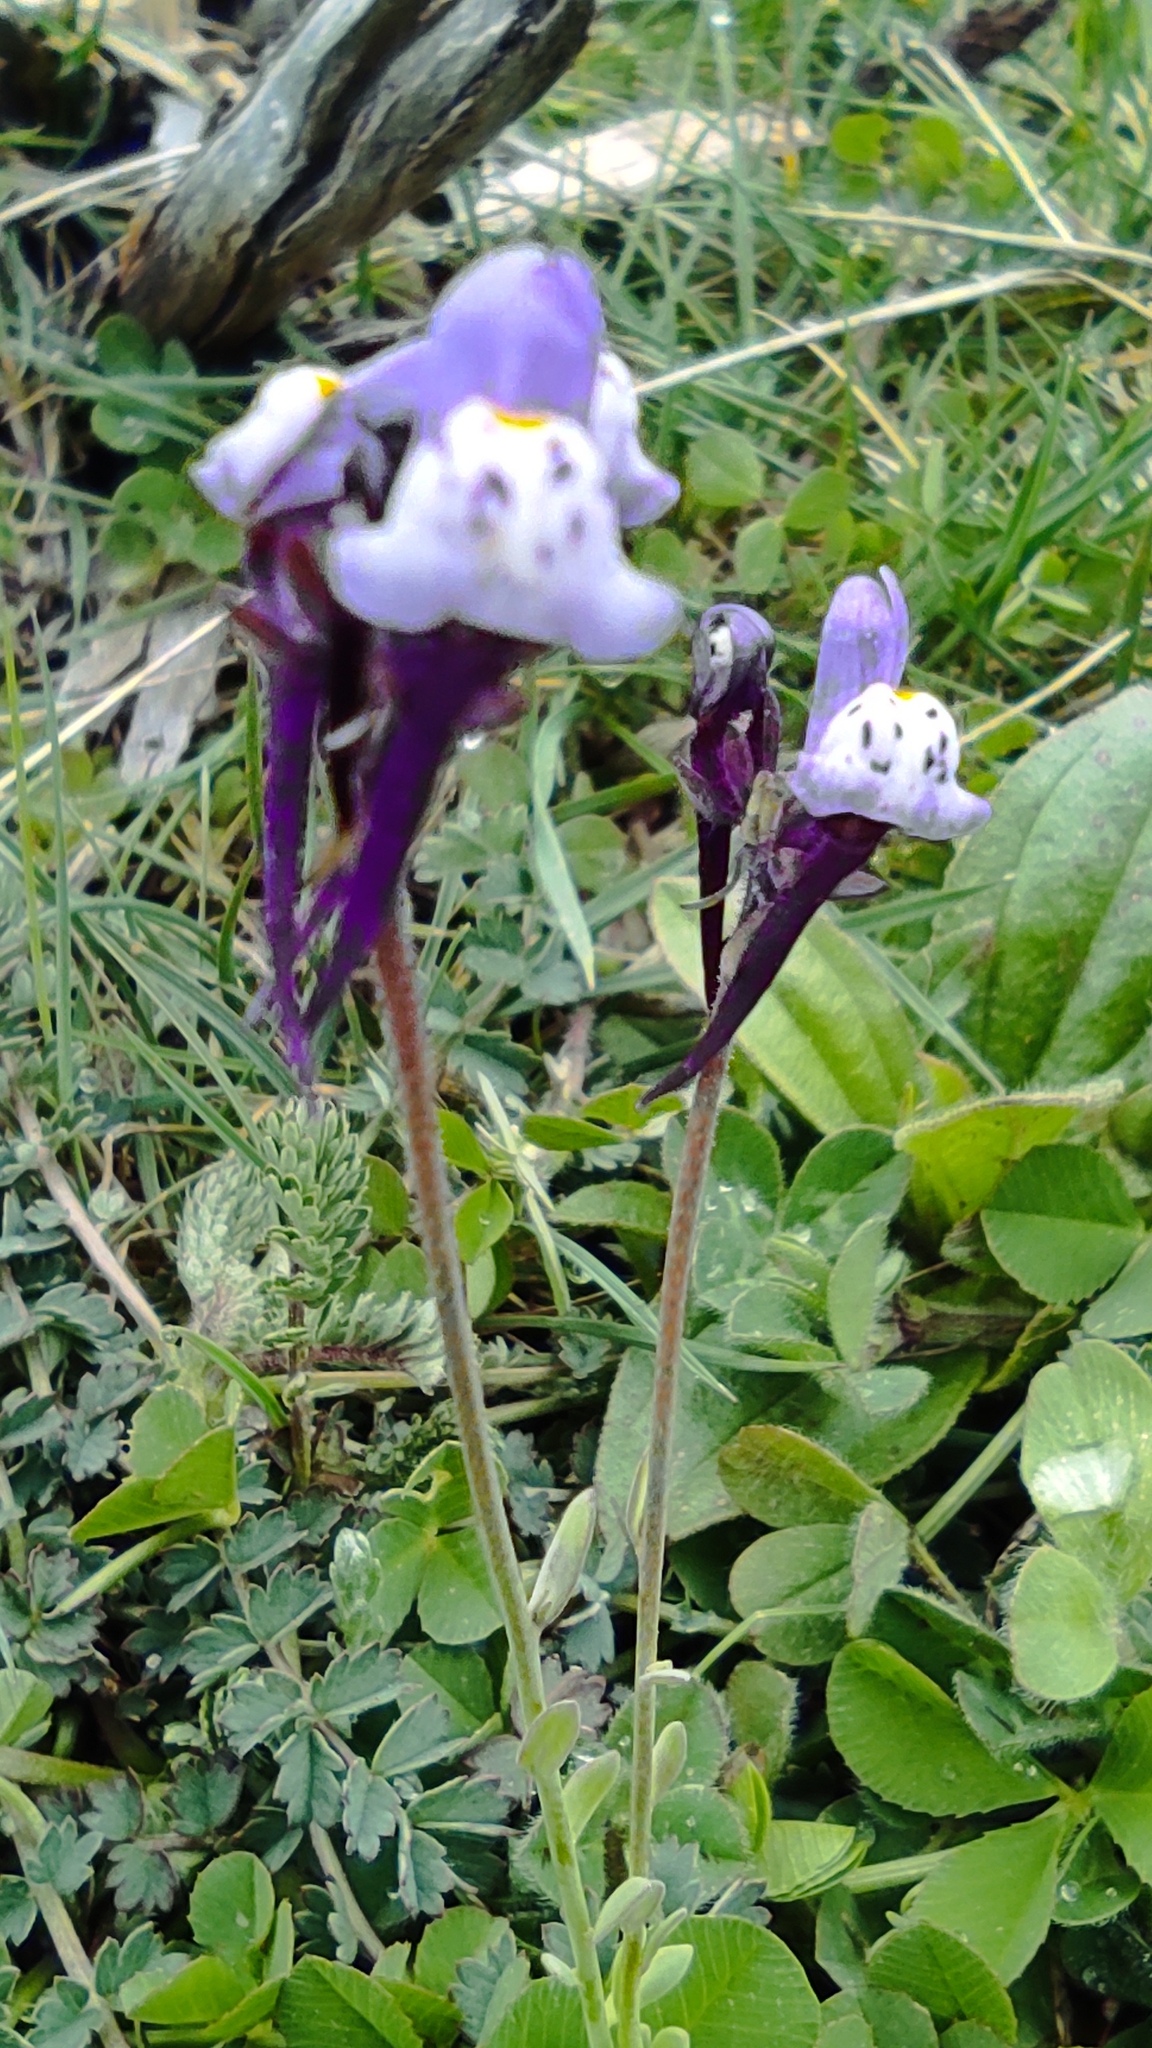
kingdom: Plantae
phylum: Tracheophyta
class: Magnoliopsida
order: Lamiales
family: Plantaginaceae
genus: Linaria
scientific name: Linaria amethystea
